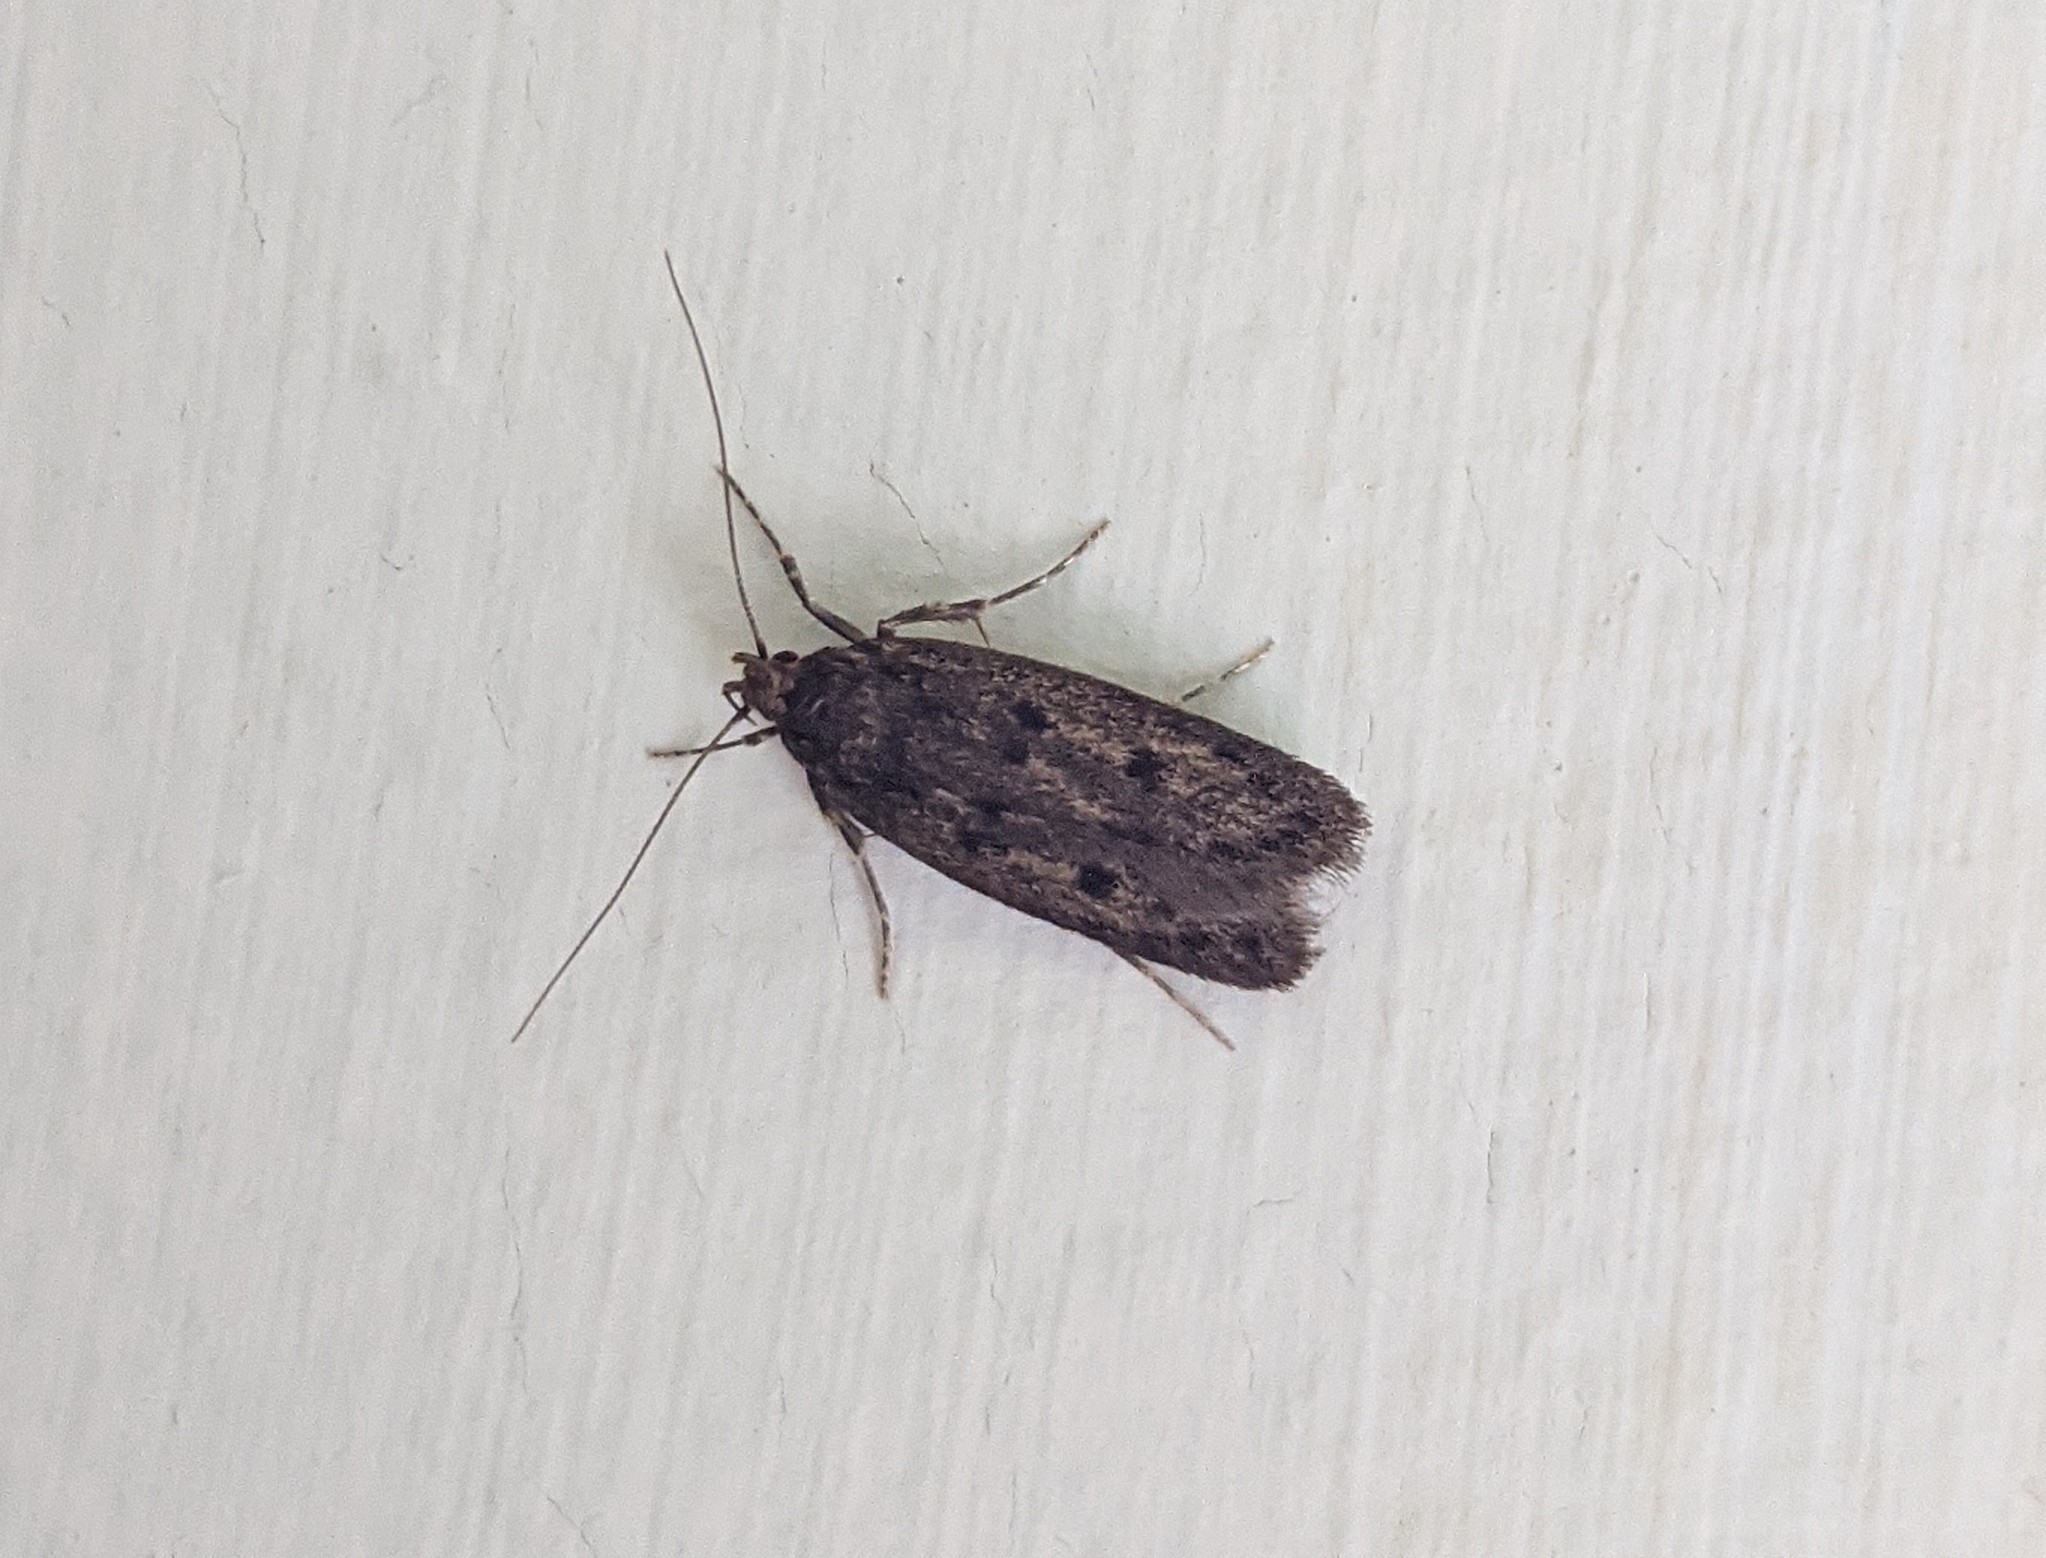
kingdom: Animalia
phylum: Arthropoda
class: Insecta
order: Lepidoptera
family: Oecophoridae
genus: Hofmannophila
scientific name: Hofmannophila pseudospretella
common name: Brown house moth
